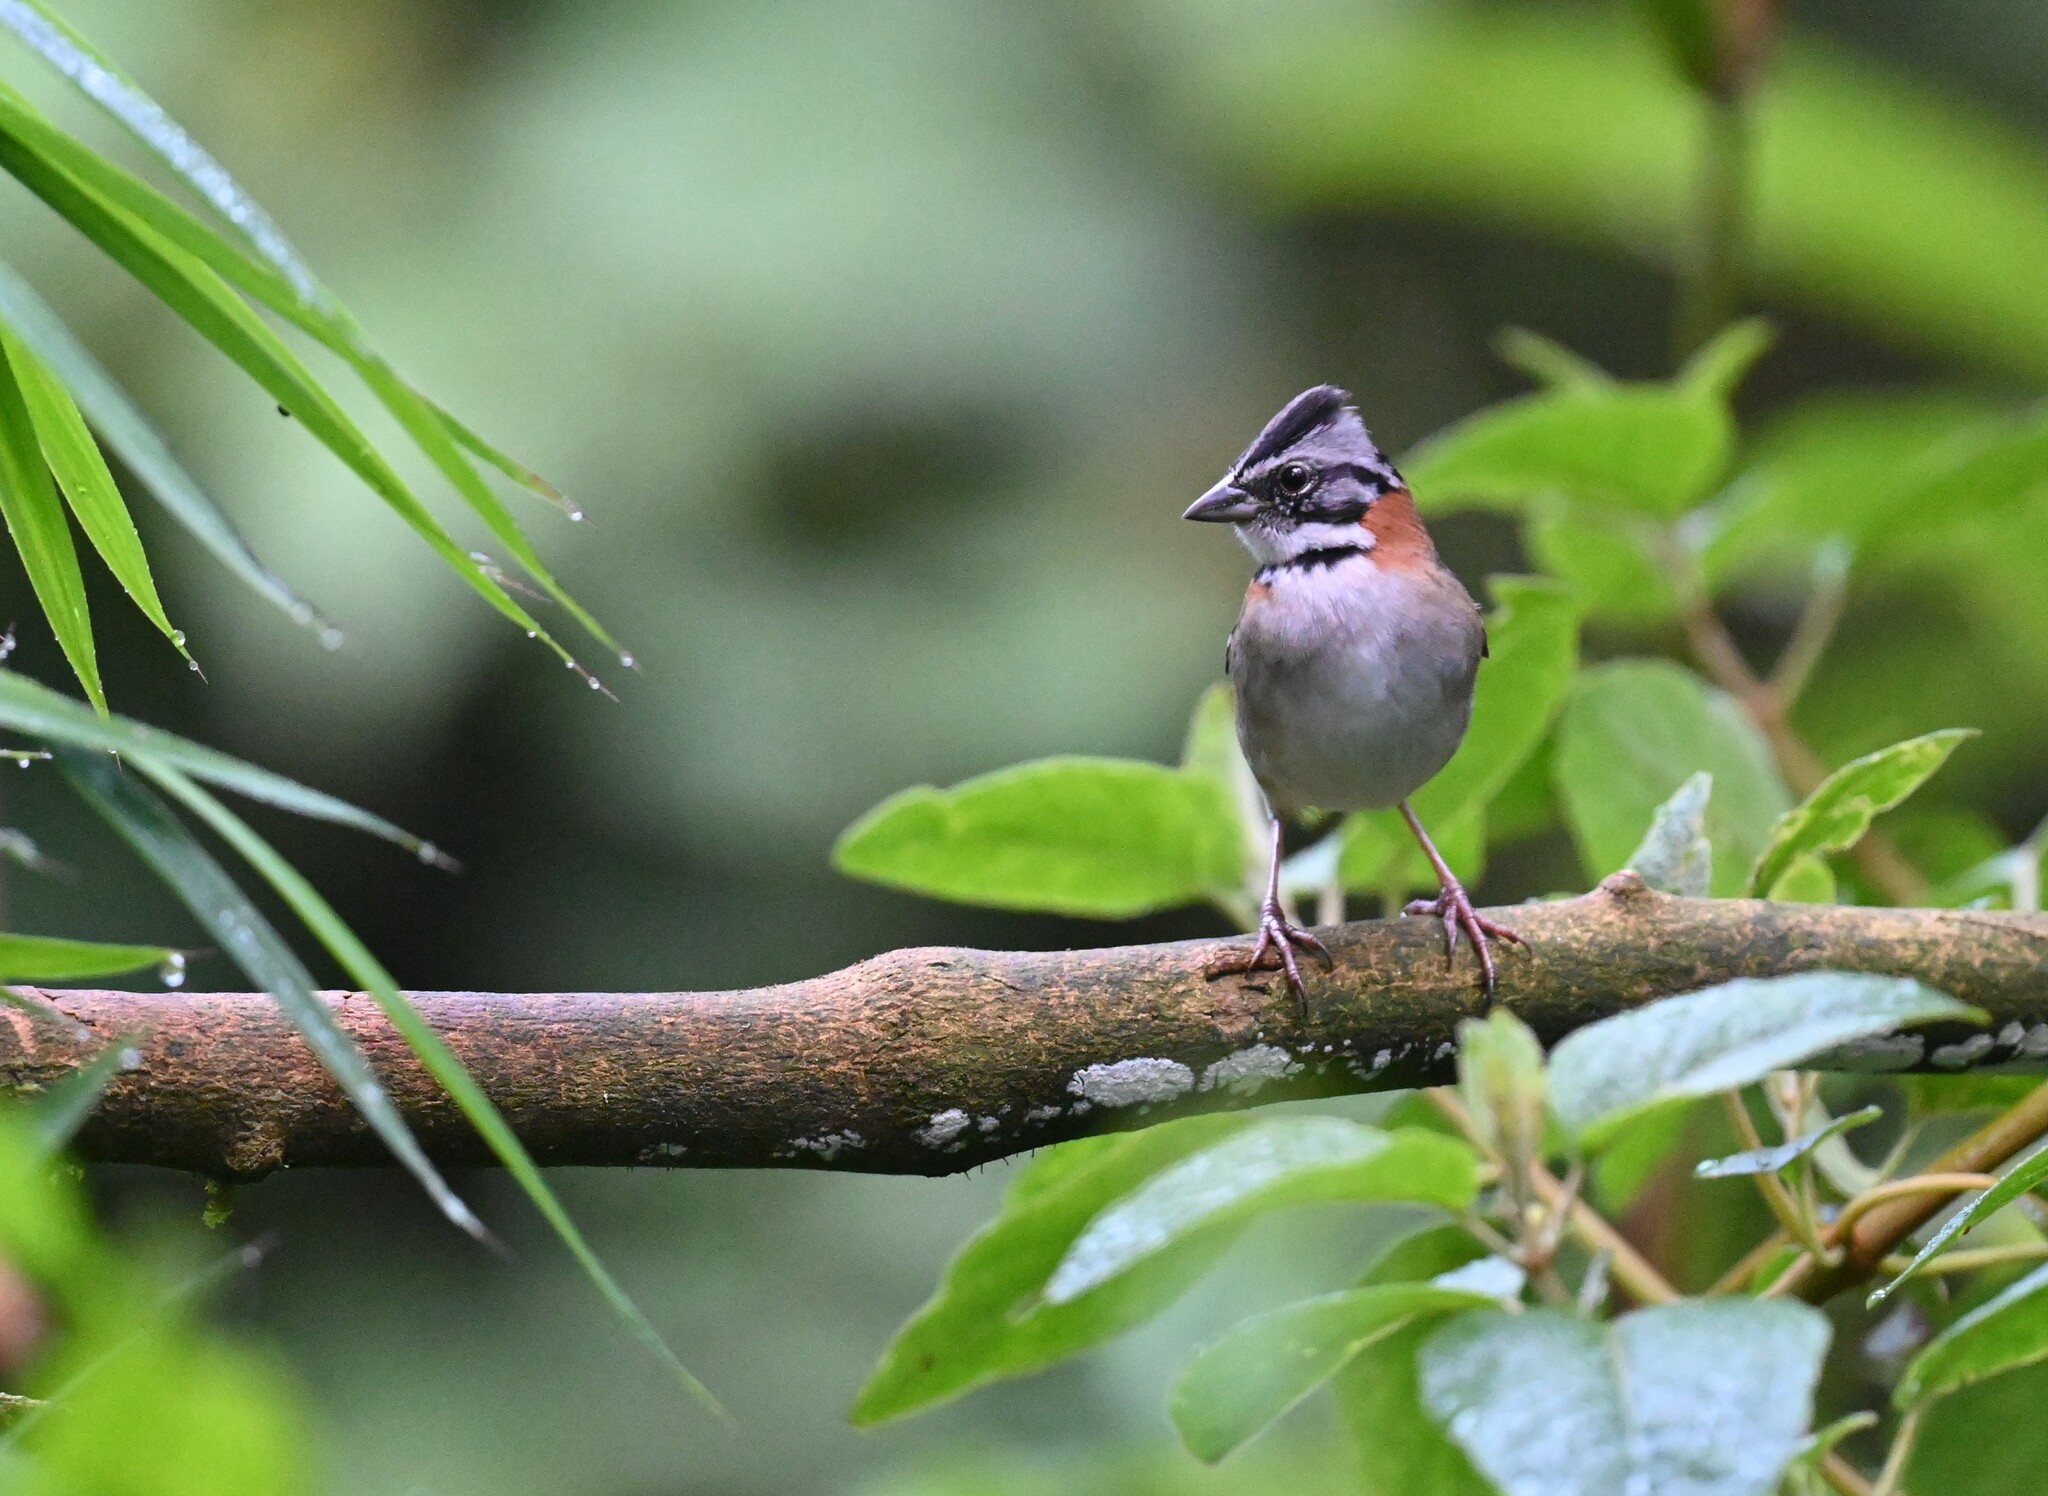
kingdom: Animalia
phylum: Chordata
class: Aves
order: Passeriformes
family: Passerellidae
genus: Zonotrichia
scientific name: Zonotrichia capensis
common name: Rufous-collared sparrow
